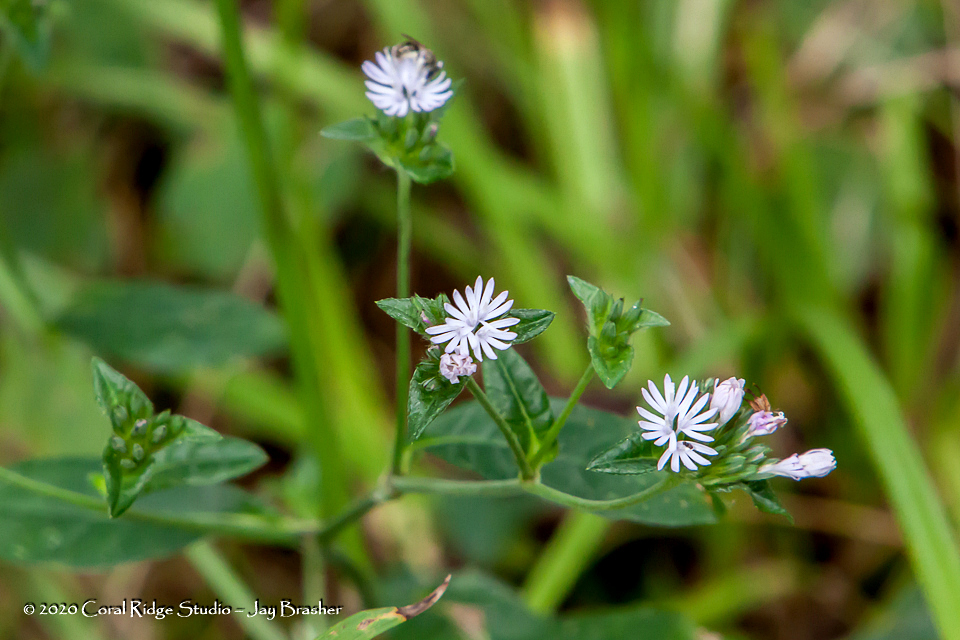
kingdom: Plantae
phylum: Tracheophyta
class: Magnoliopsida
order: Asterales
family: Asteraceae
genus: Elephantopus
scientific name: Elephantopus carolinianus
